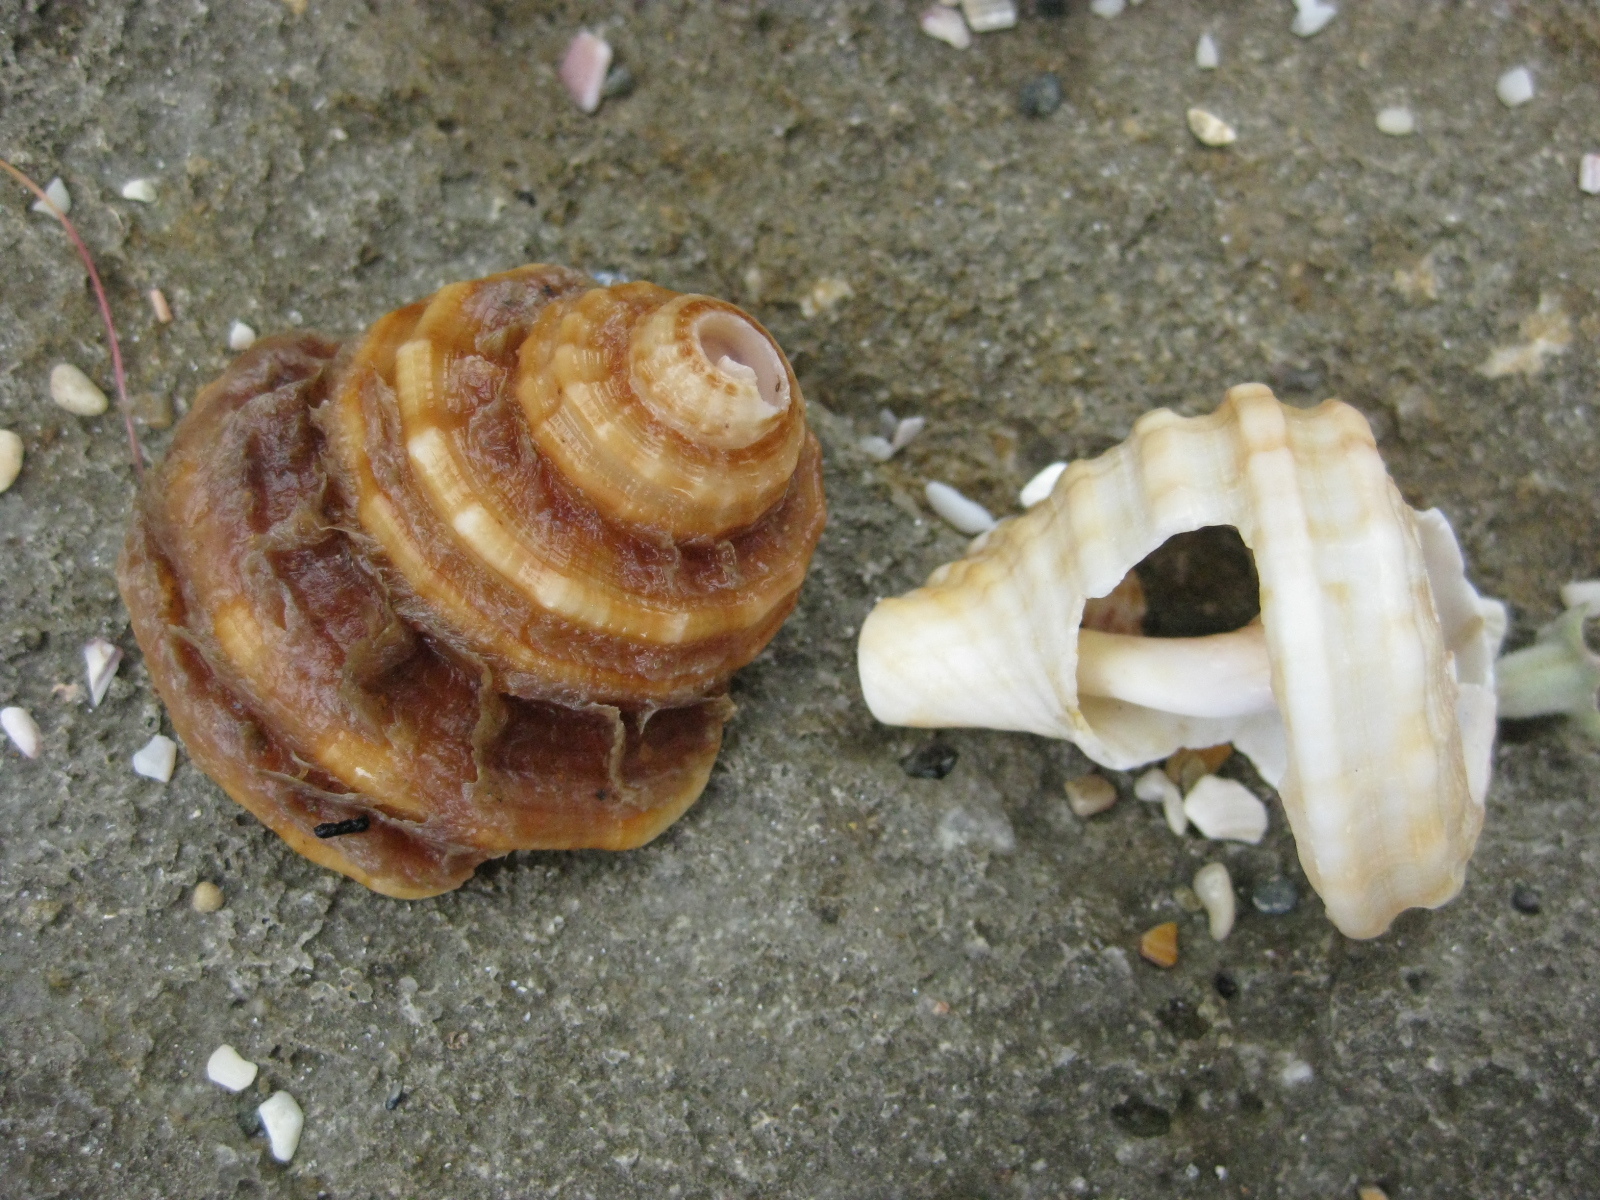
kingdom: Animalia
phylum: Mollusca
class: Gastropoda
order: Littorinimorpha
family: Cymatiidae
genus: Monoplex
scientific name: Monoplex parthenopeus
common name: Giant triton
